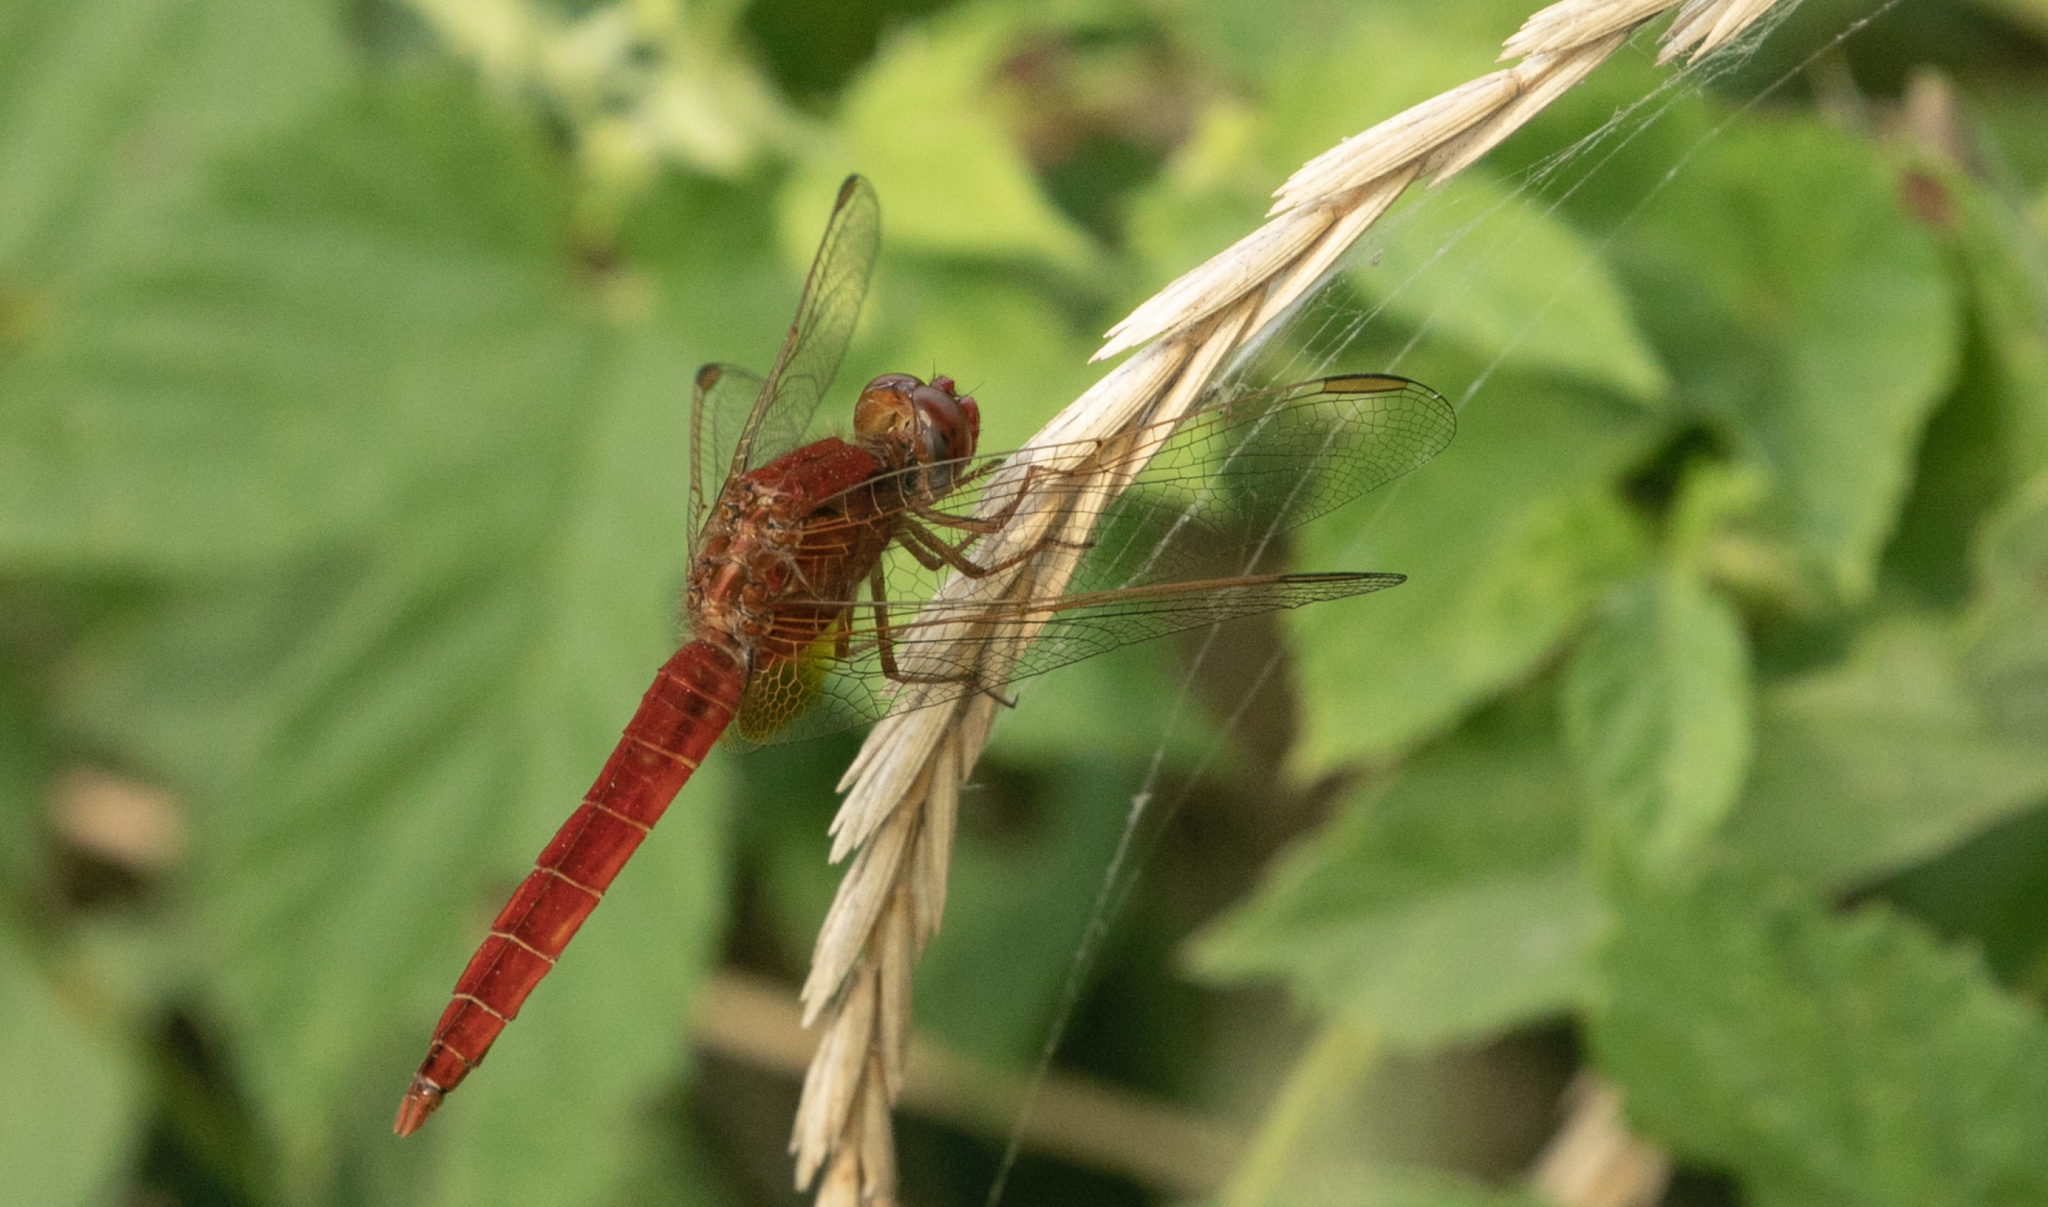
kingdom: Animalia
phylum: Arthropoda
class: Insecta
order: Odonata
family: Libellulidae
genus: Crocothemis
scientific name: Crocothemis erythraea
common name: Scarlet dragonfly
